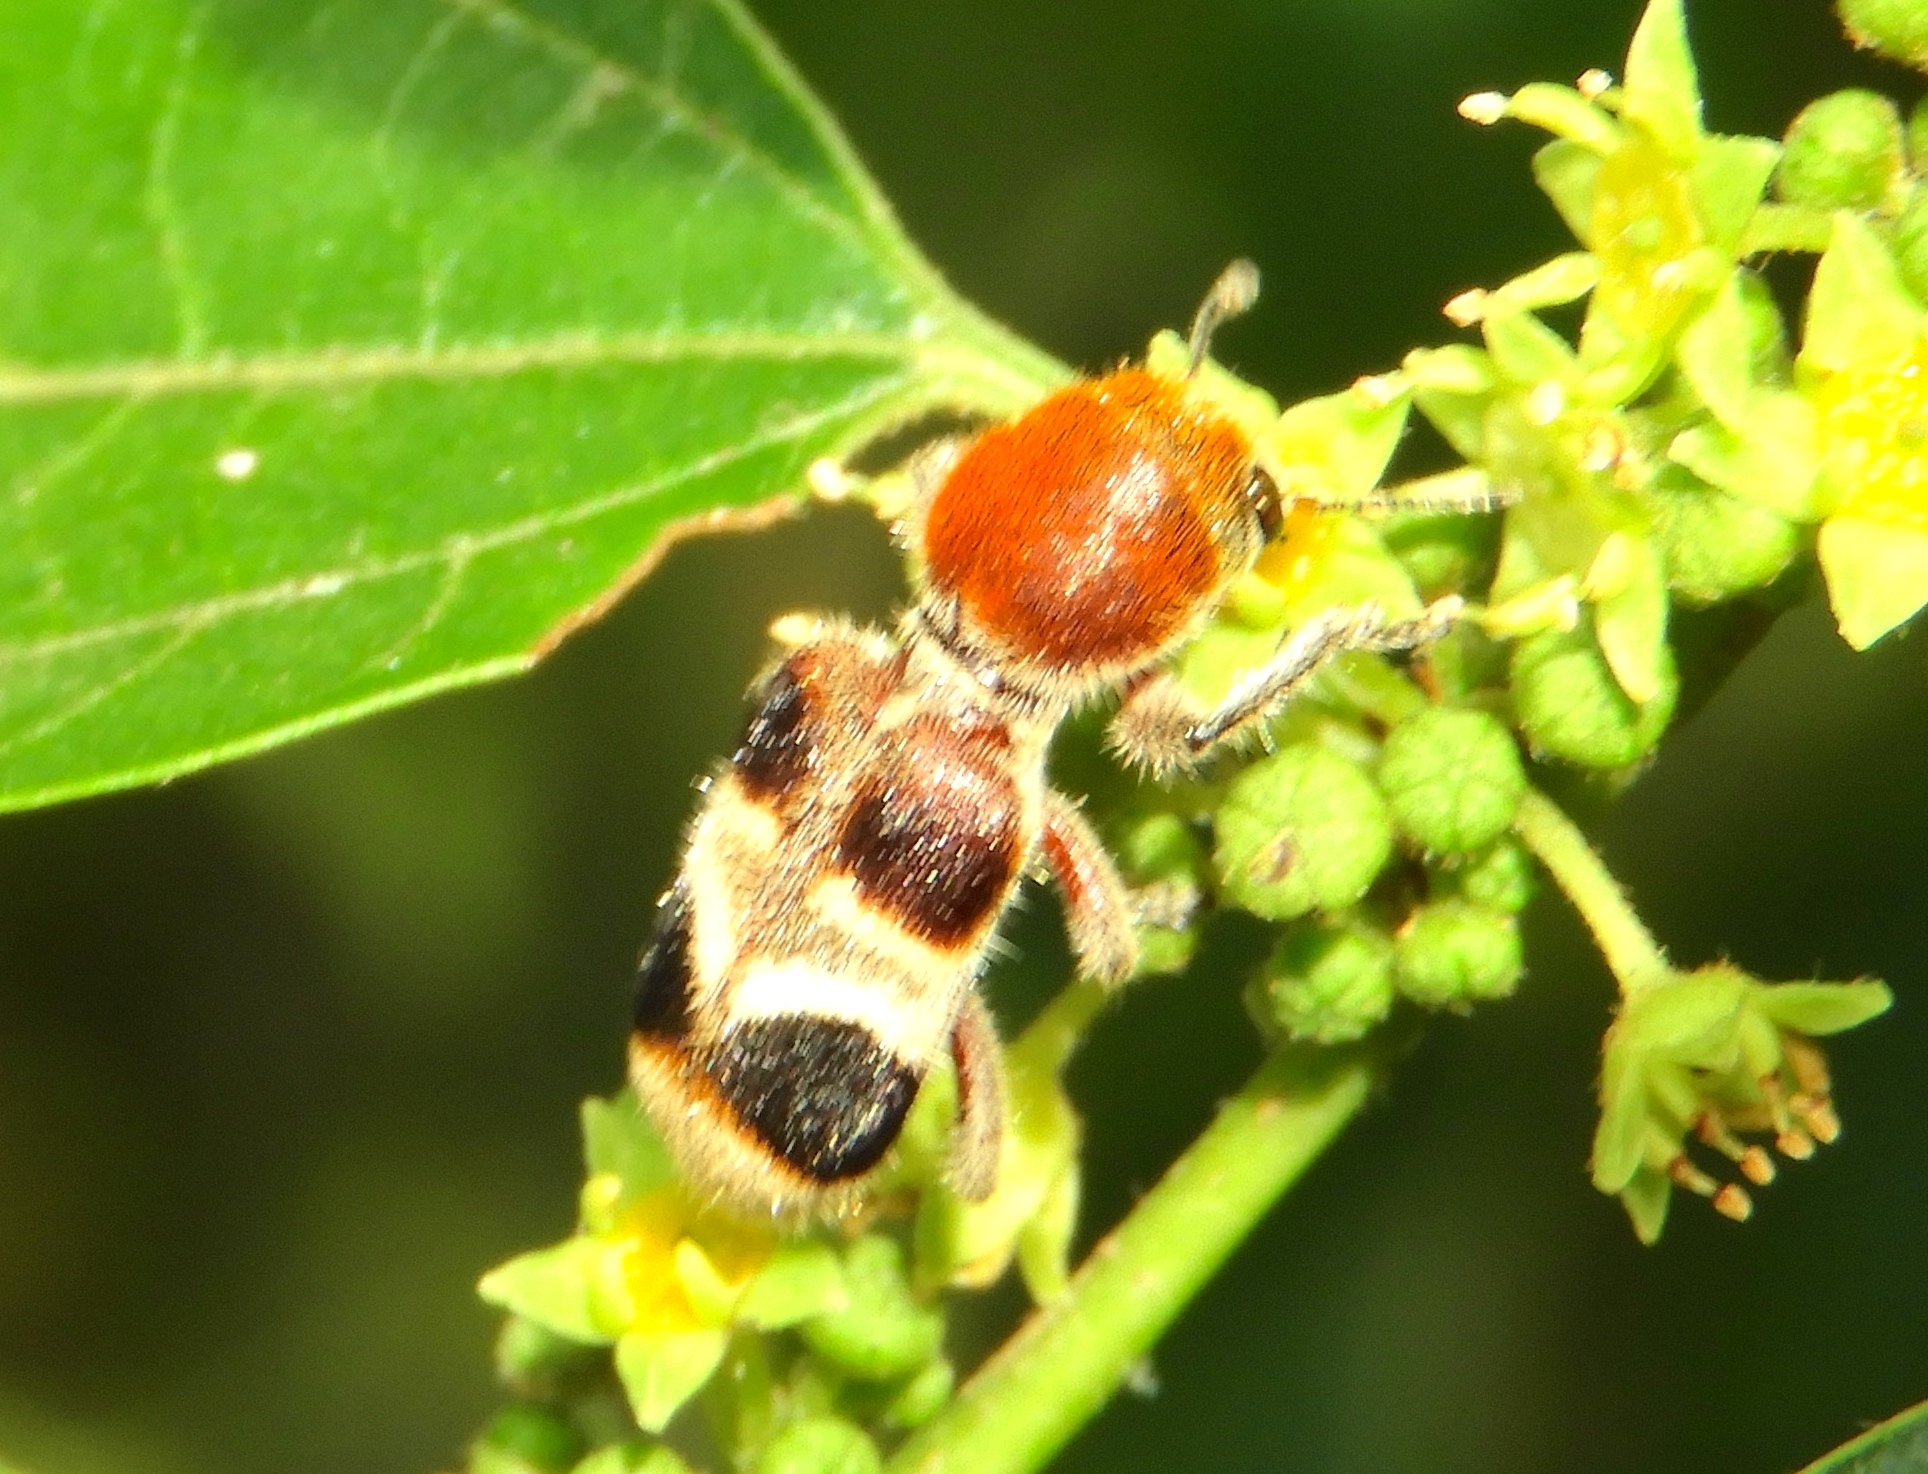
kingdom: Animalia
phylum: Arthropoda
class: Insecta
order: Coleoptera
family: Cleridae
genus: Enoclerus
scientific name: Enoclerus quadriguttatus
